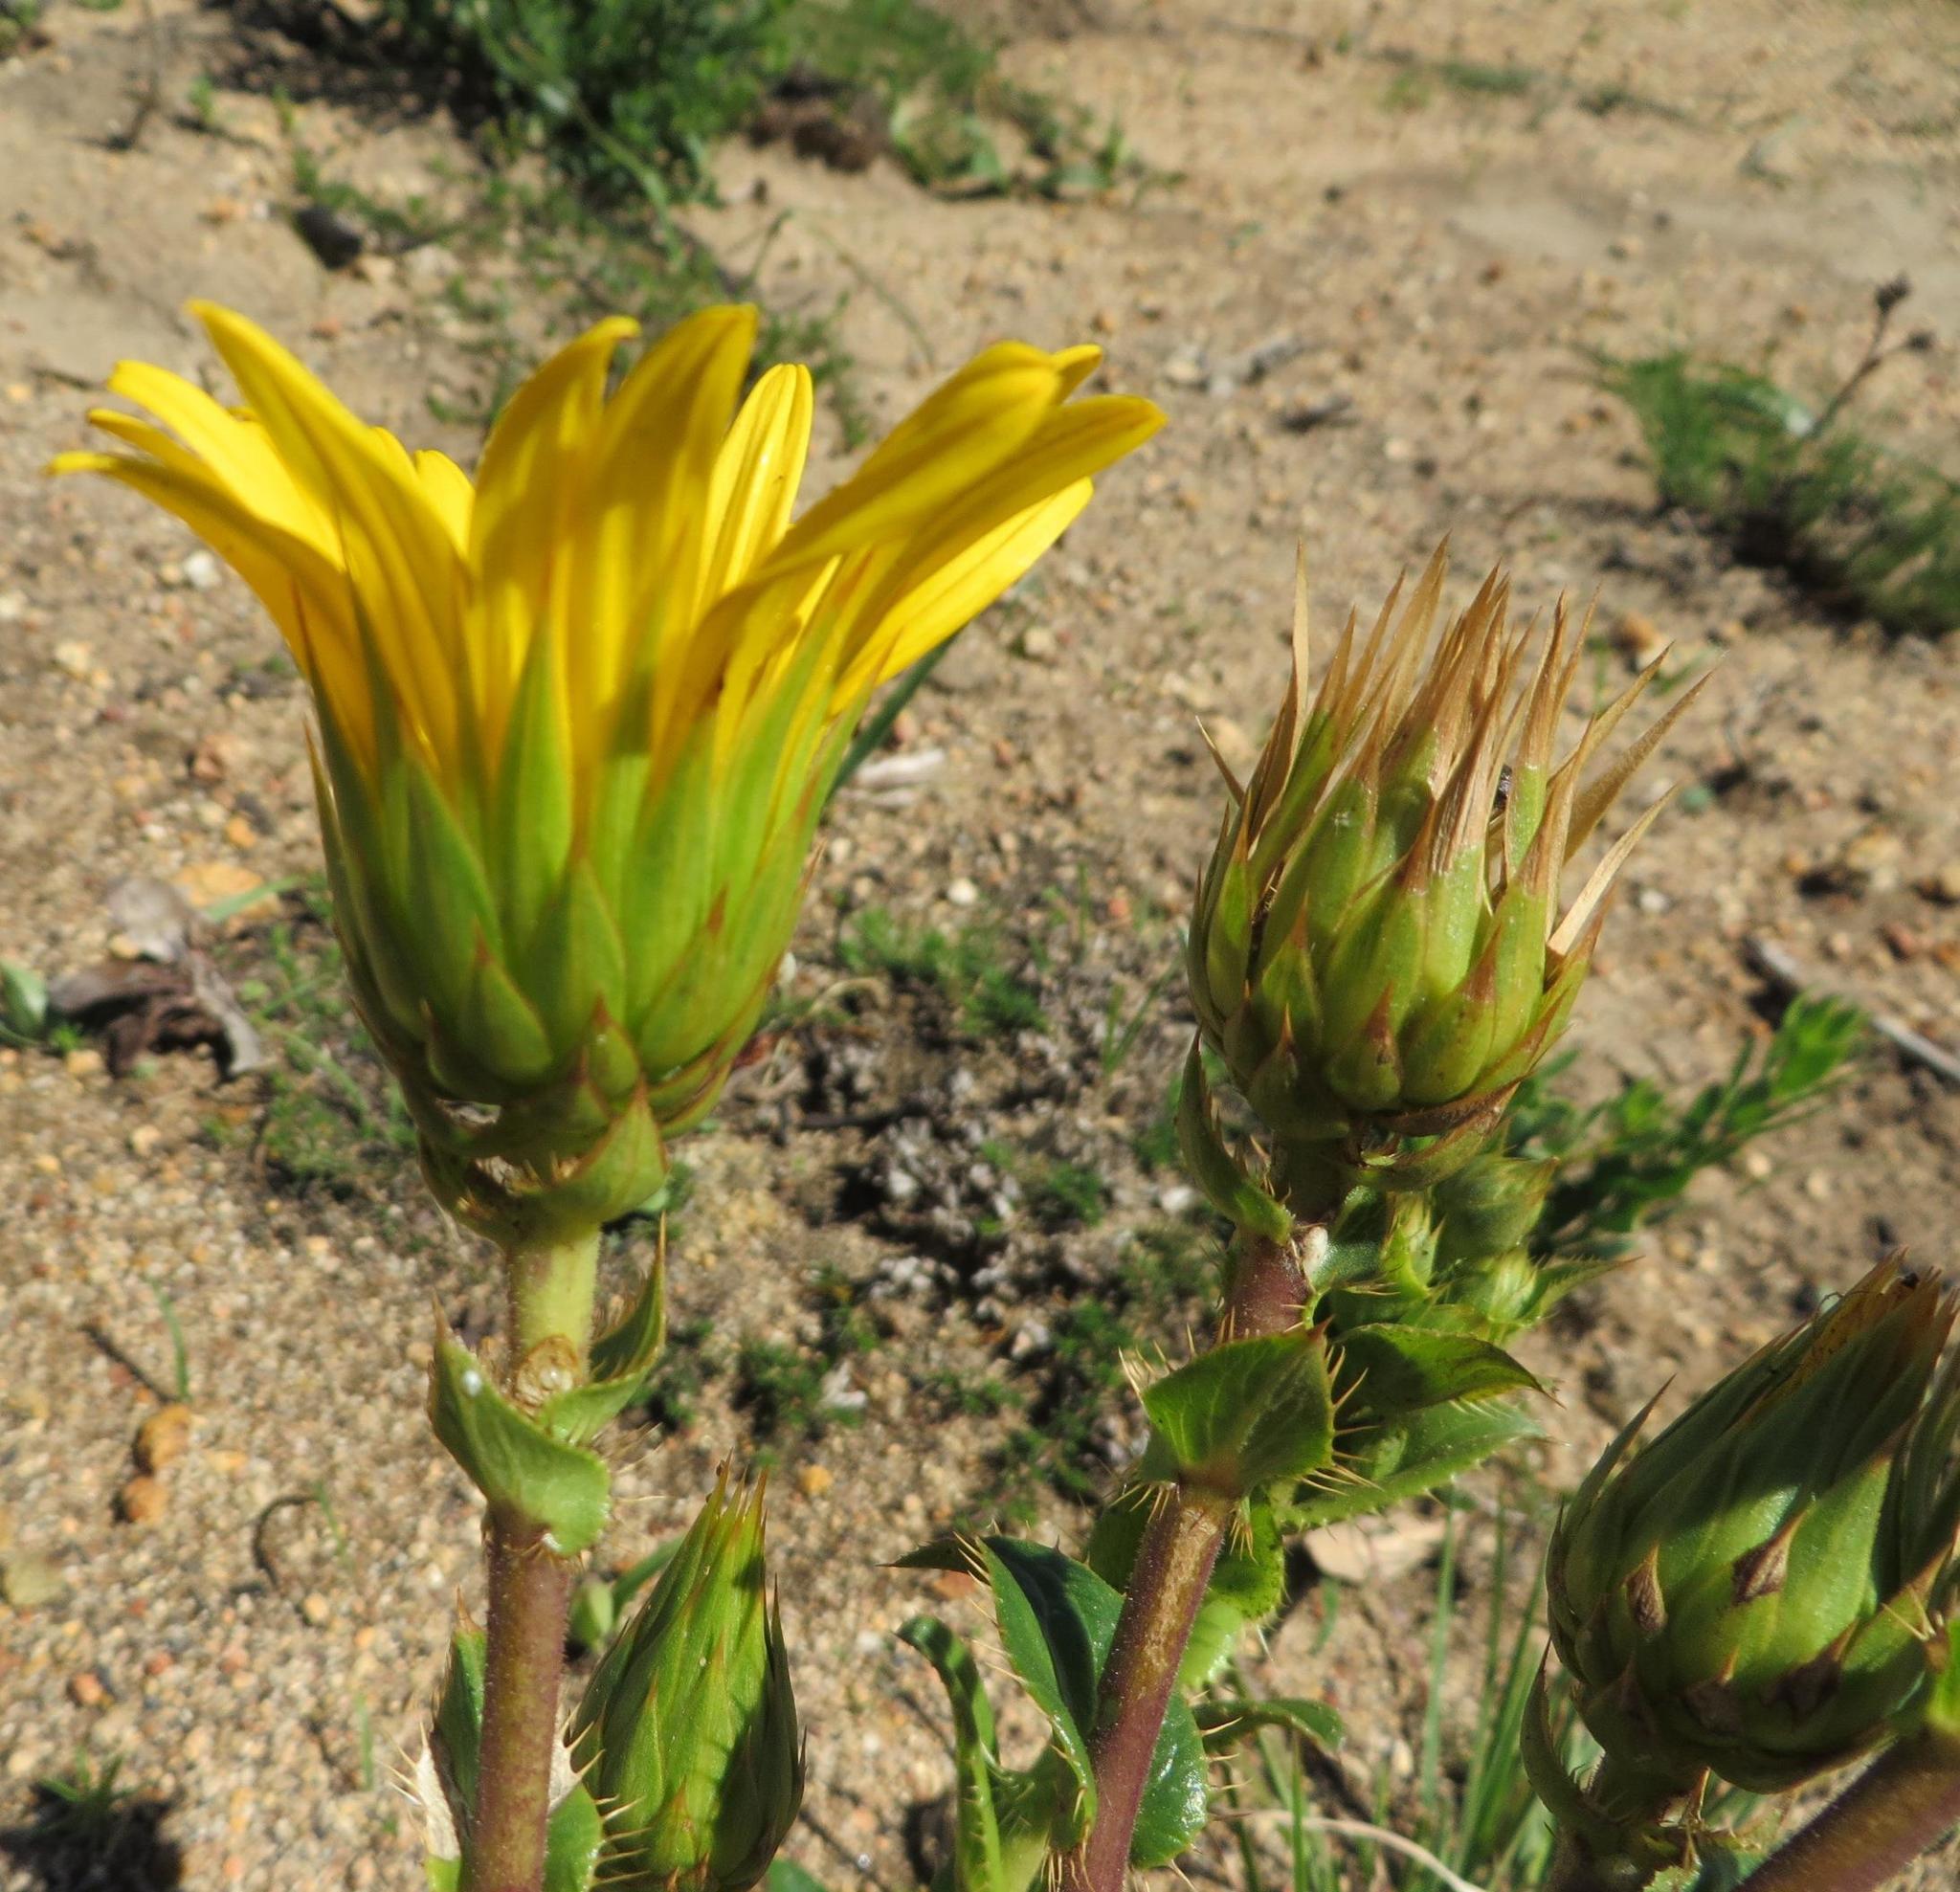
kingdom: Plantae
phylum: Tracheophyta
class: Magnoliopsida
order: Asterales
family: Asteraceae
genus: Berkheya
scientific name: Berkheya herbacea
